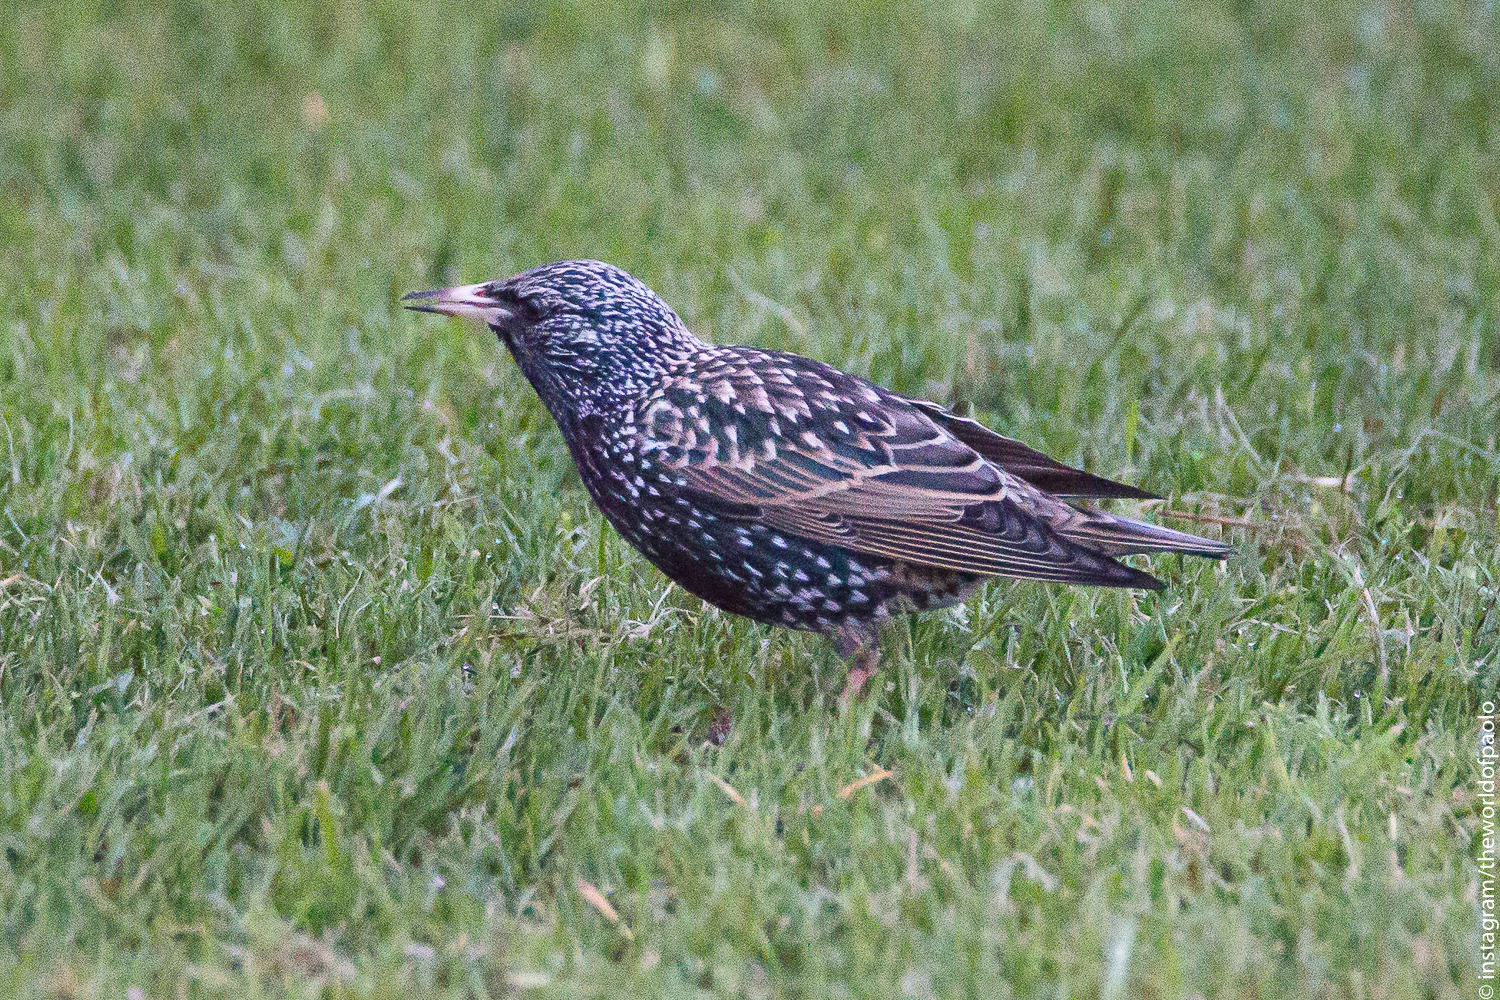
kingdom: Animalia
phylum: Chordata
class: Aves
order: Passeriformes
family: Sturnidae
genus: Sturnus
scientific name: Sturnus vulgaris
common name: Common starling
